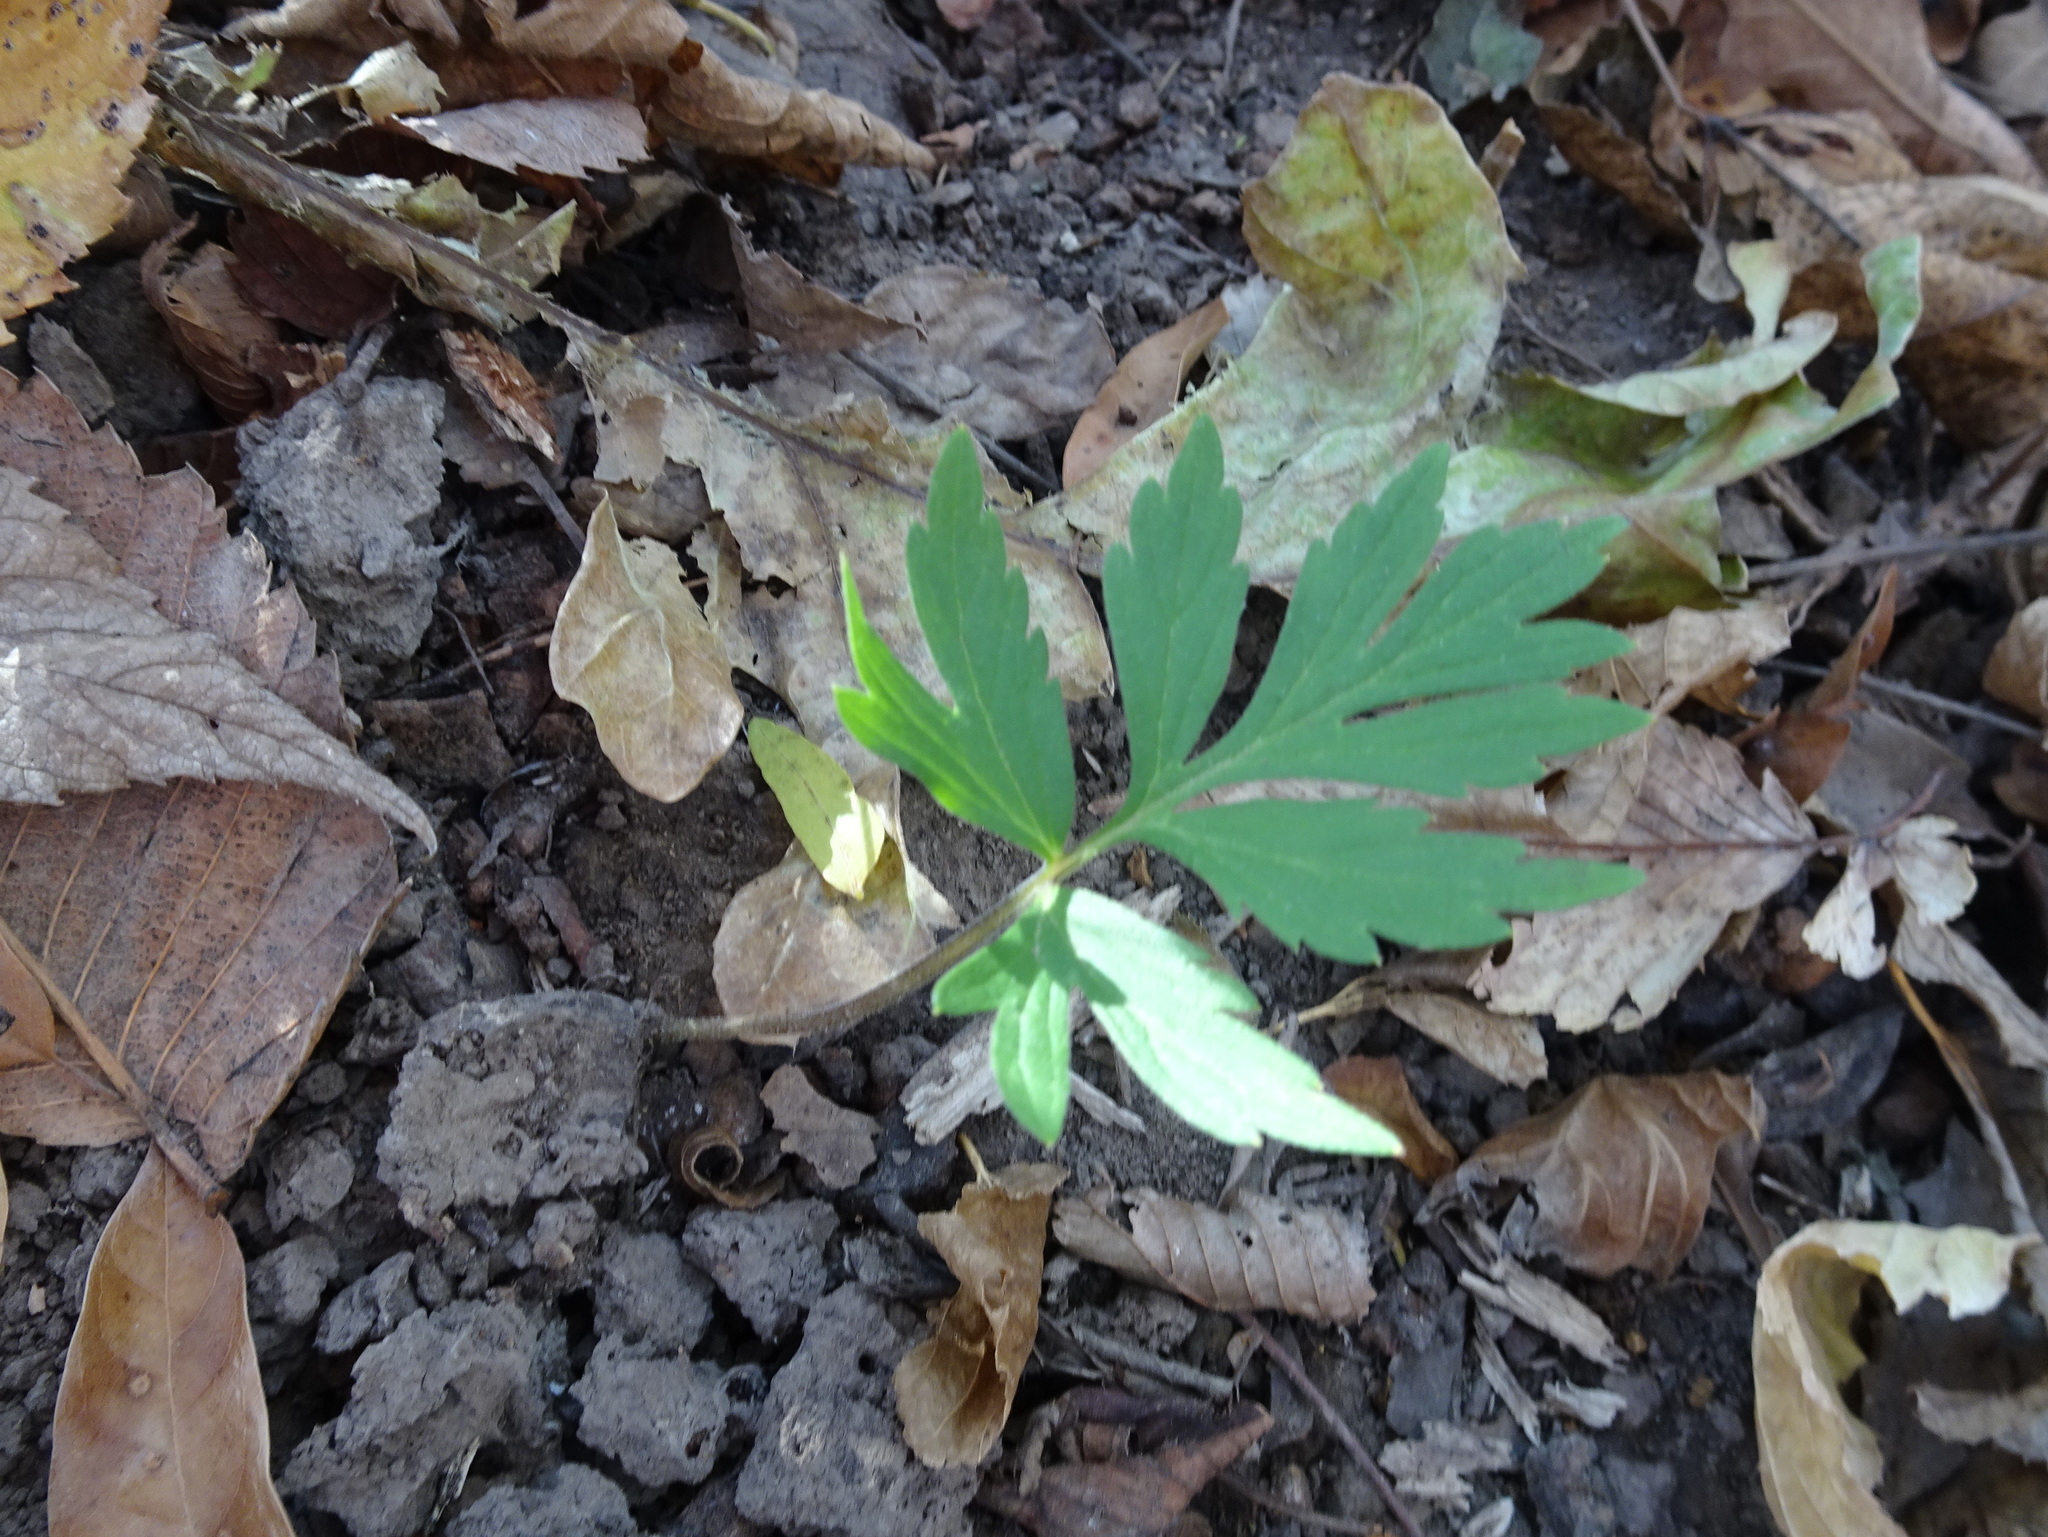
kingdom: Plantae
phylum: Tracheophyta
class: Magnoliopsida
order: Boraginales
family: Hydrophyllaceae
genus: Hydrophyllum
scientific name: Hydrophyllum virginianum
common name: Virginia waterleaf
